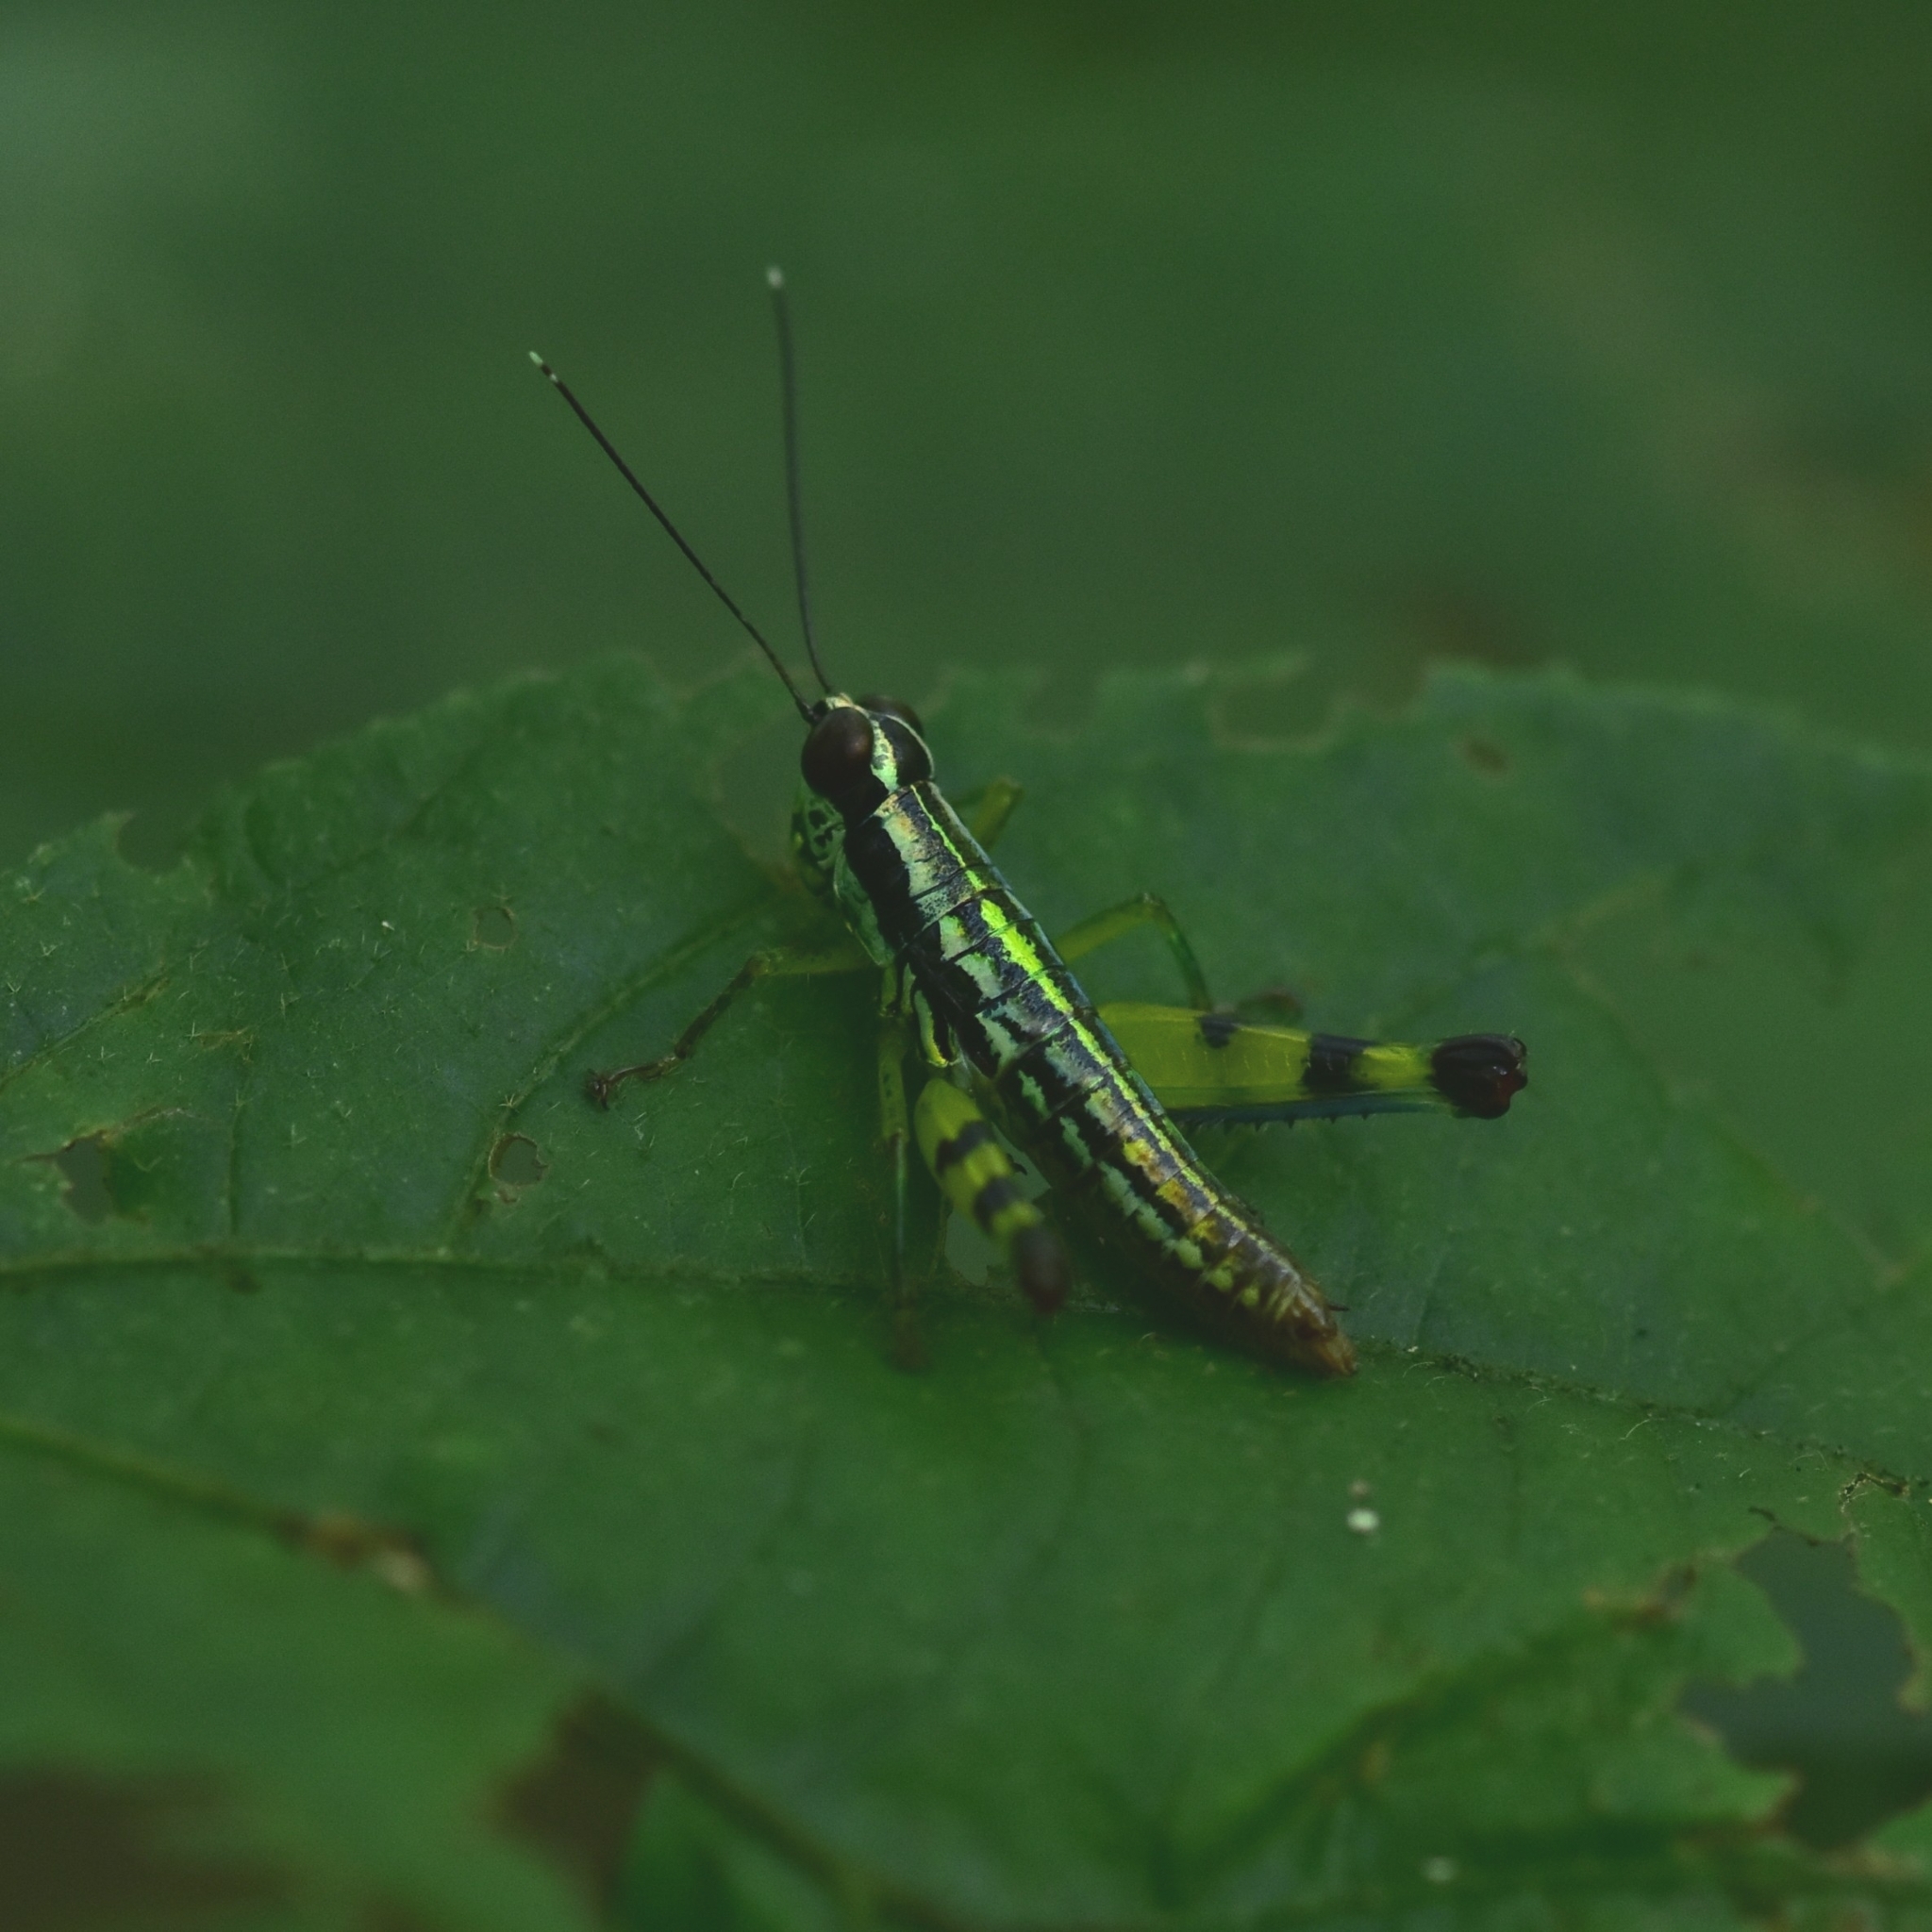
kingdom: Animalia
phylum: Arthropoda
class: Insecta
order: Orthoptera
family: Acrididae
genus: Genimen
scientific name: Genimen prasinum
